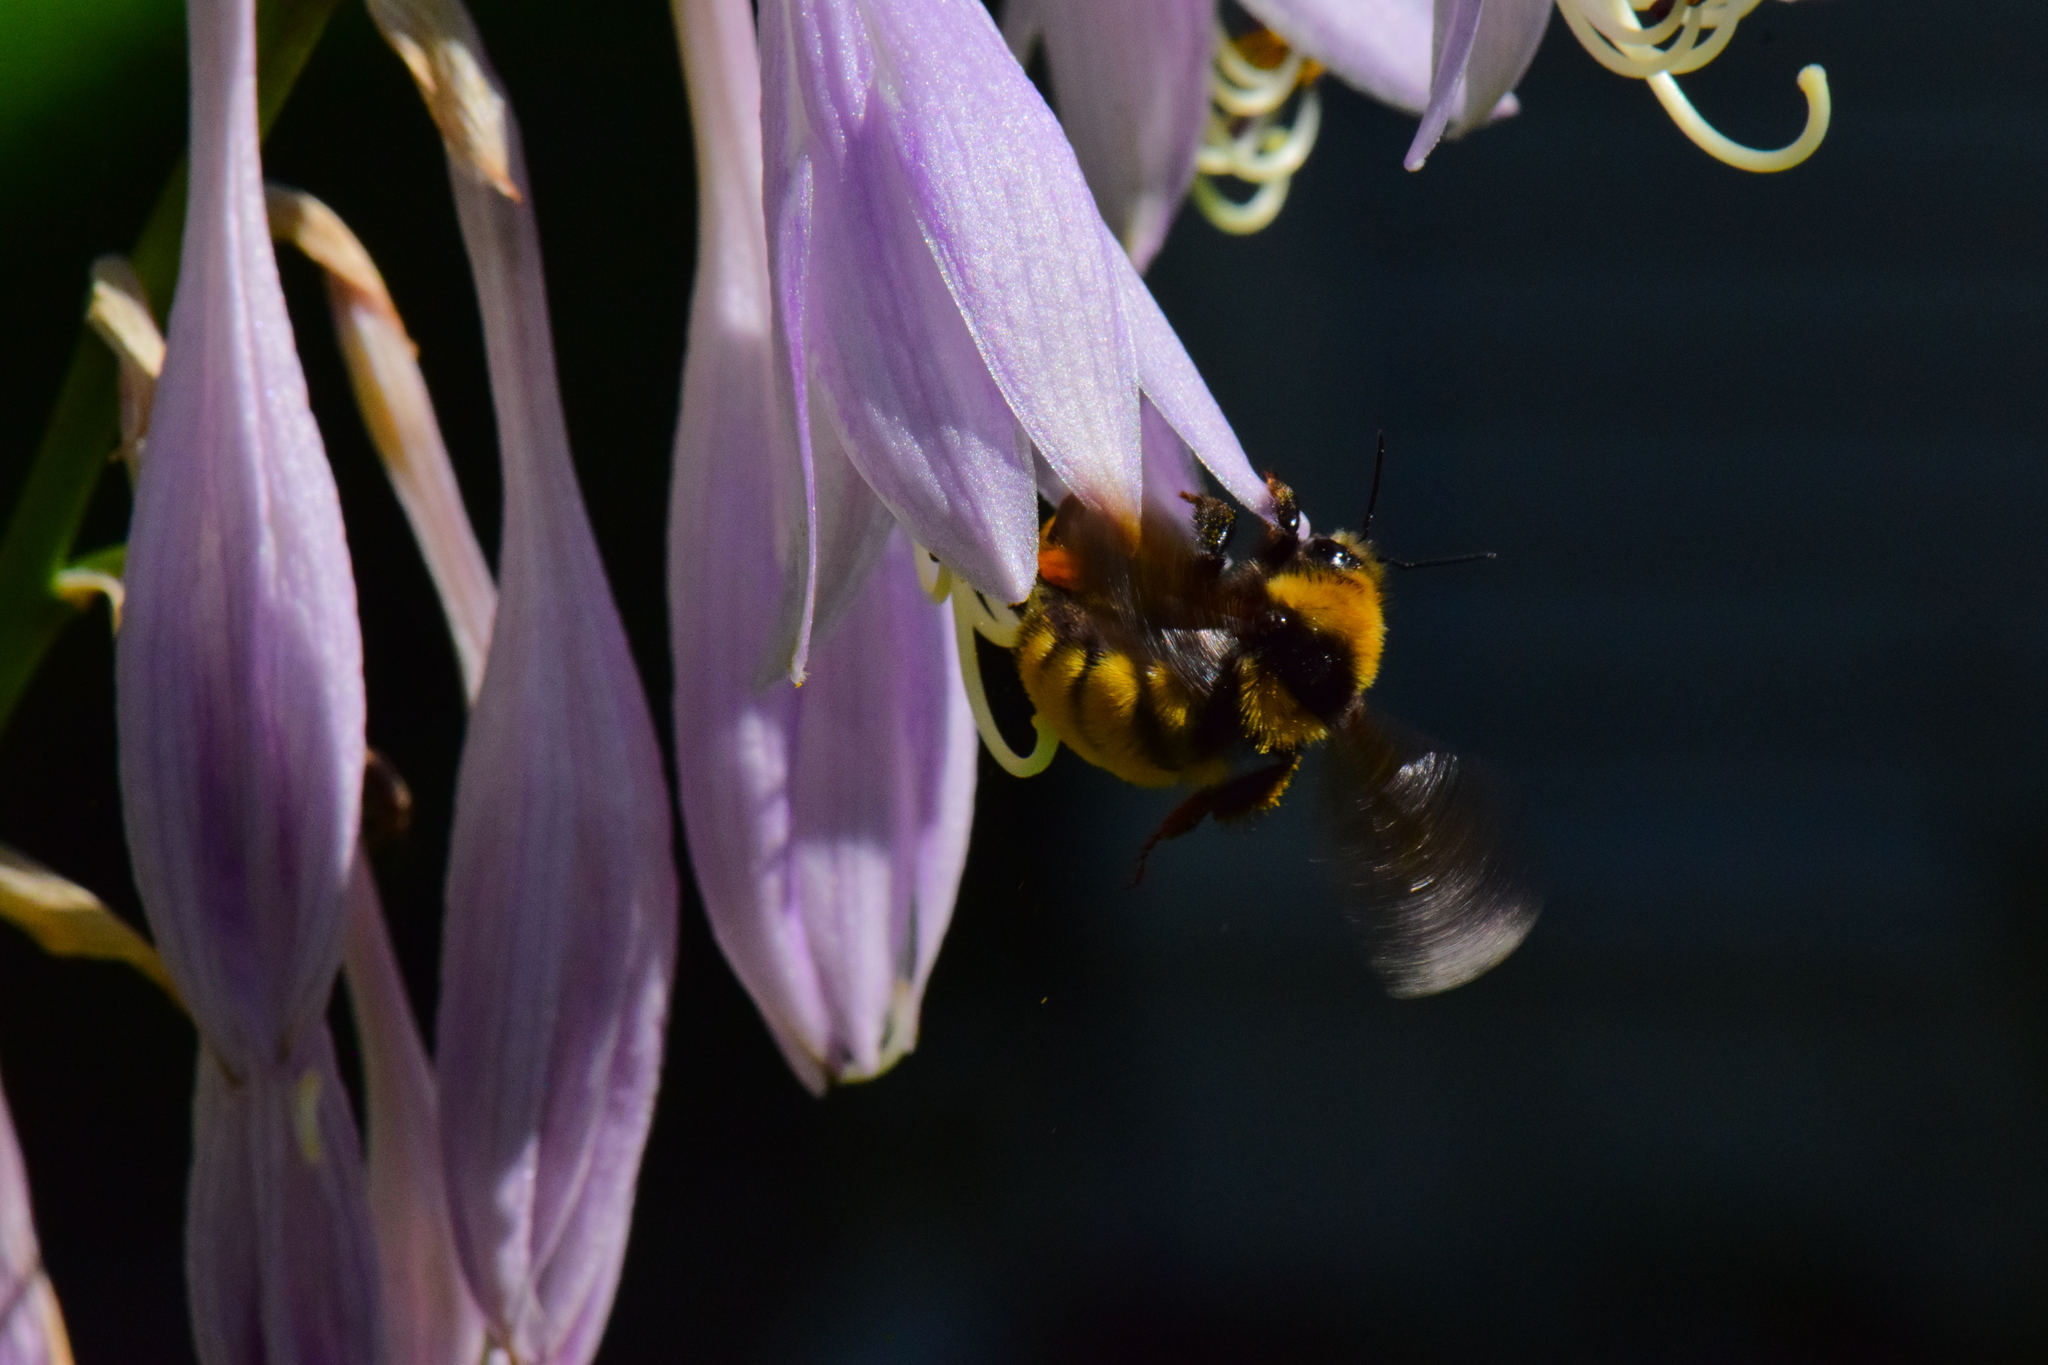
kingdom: Animalia
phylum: Arthropoda
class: Insecta
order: Hymenoptera
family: Apidae
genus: Bombus
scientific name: Bombus borealis
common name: Northern amber bumble bee
